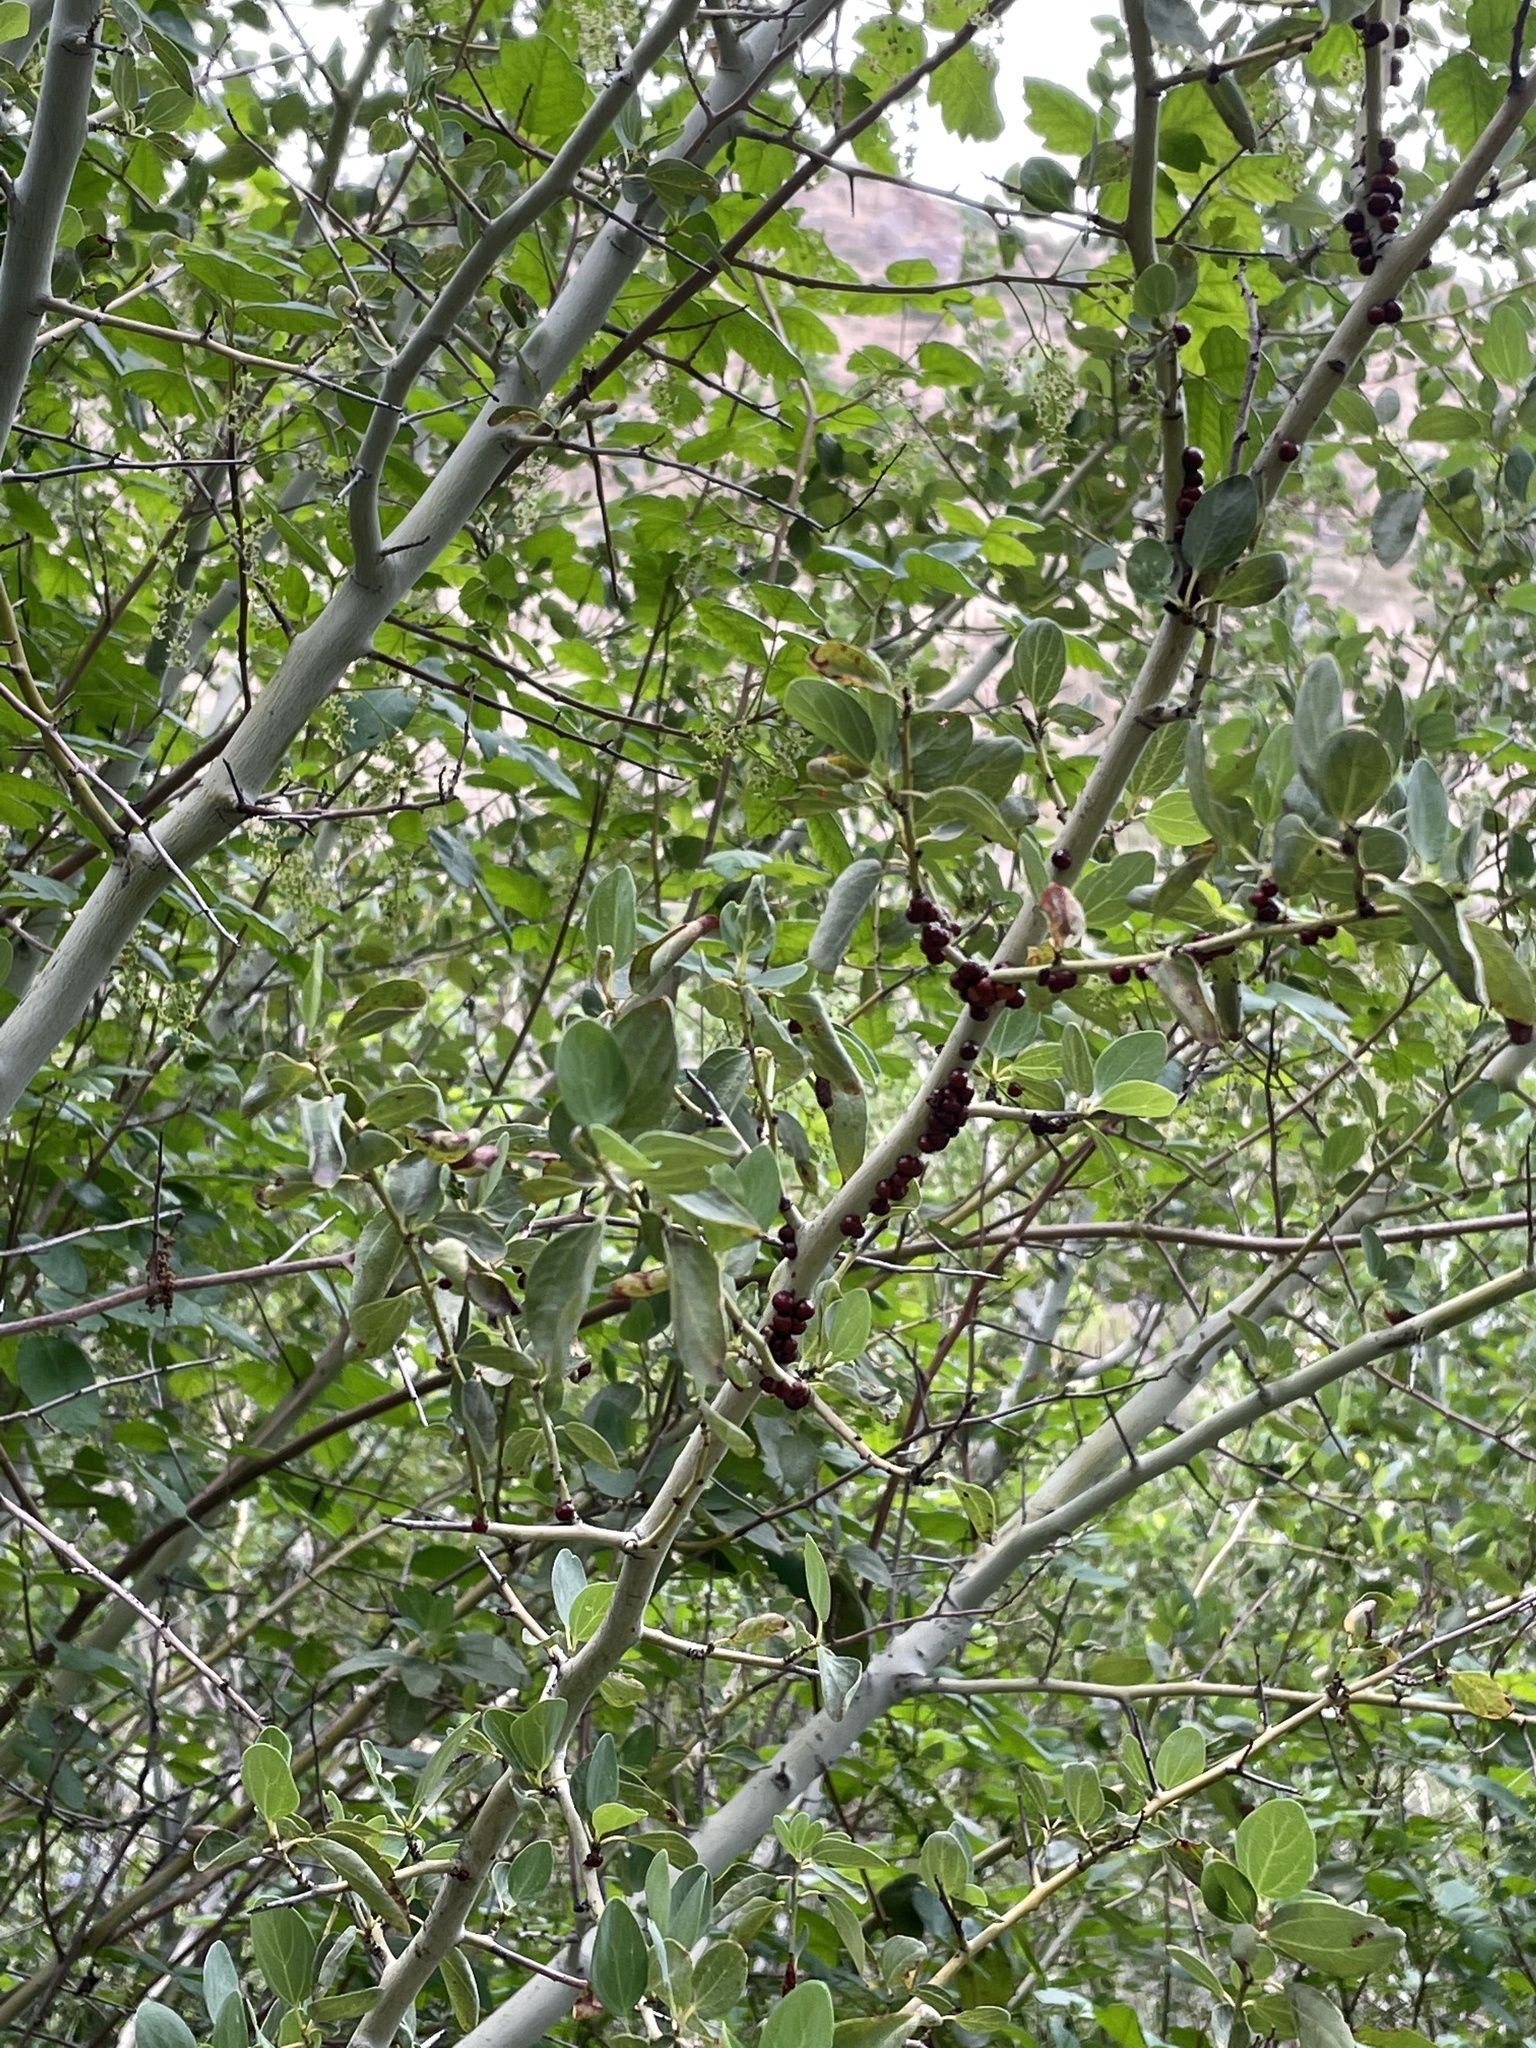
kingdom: Plantae
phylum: Tracheophyta
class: Magnoliopsida
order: Rosales
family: Rhamnaceae
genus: Ceanothus
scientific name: Ceanothus leucodermis
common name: Chaparral whitethorn
